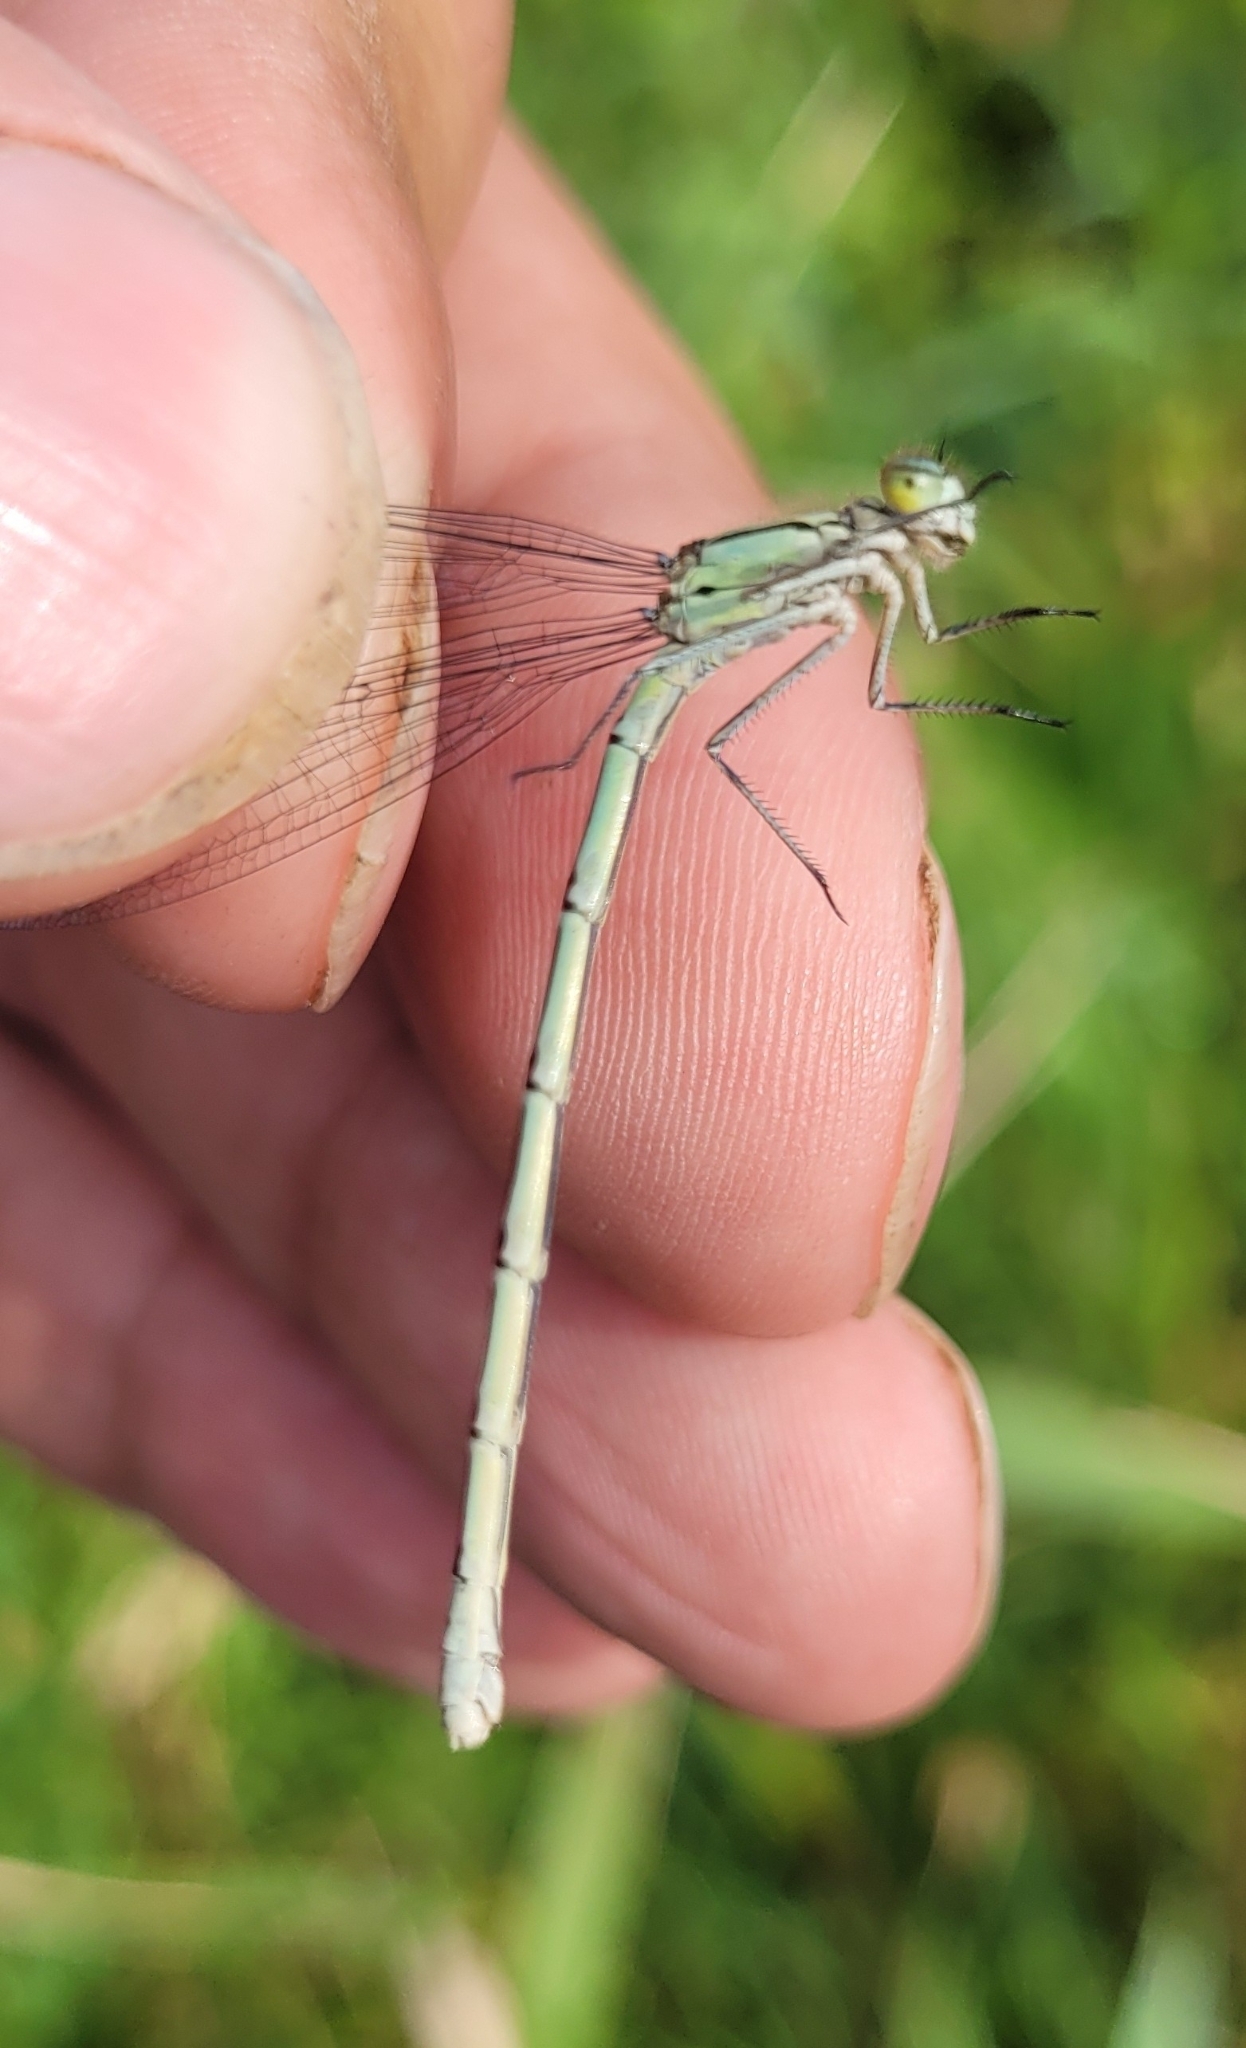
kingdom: Animalia
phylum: Arthropoda
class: Insecta
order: Odonata
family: Coenagrionidae
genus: Enallagma
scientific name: Enallagma circulatum
